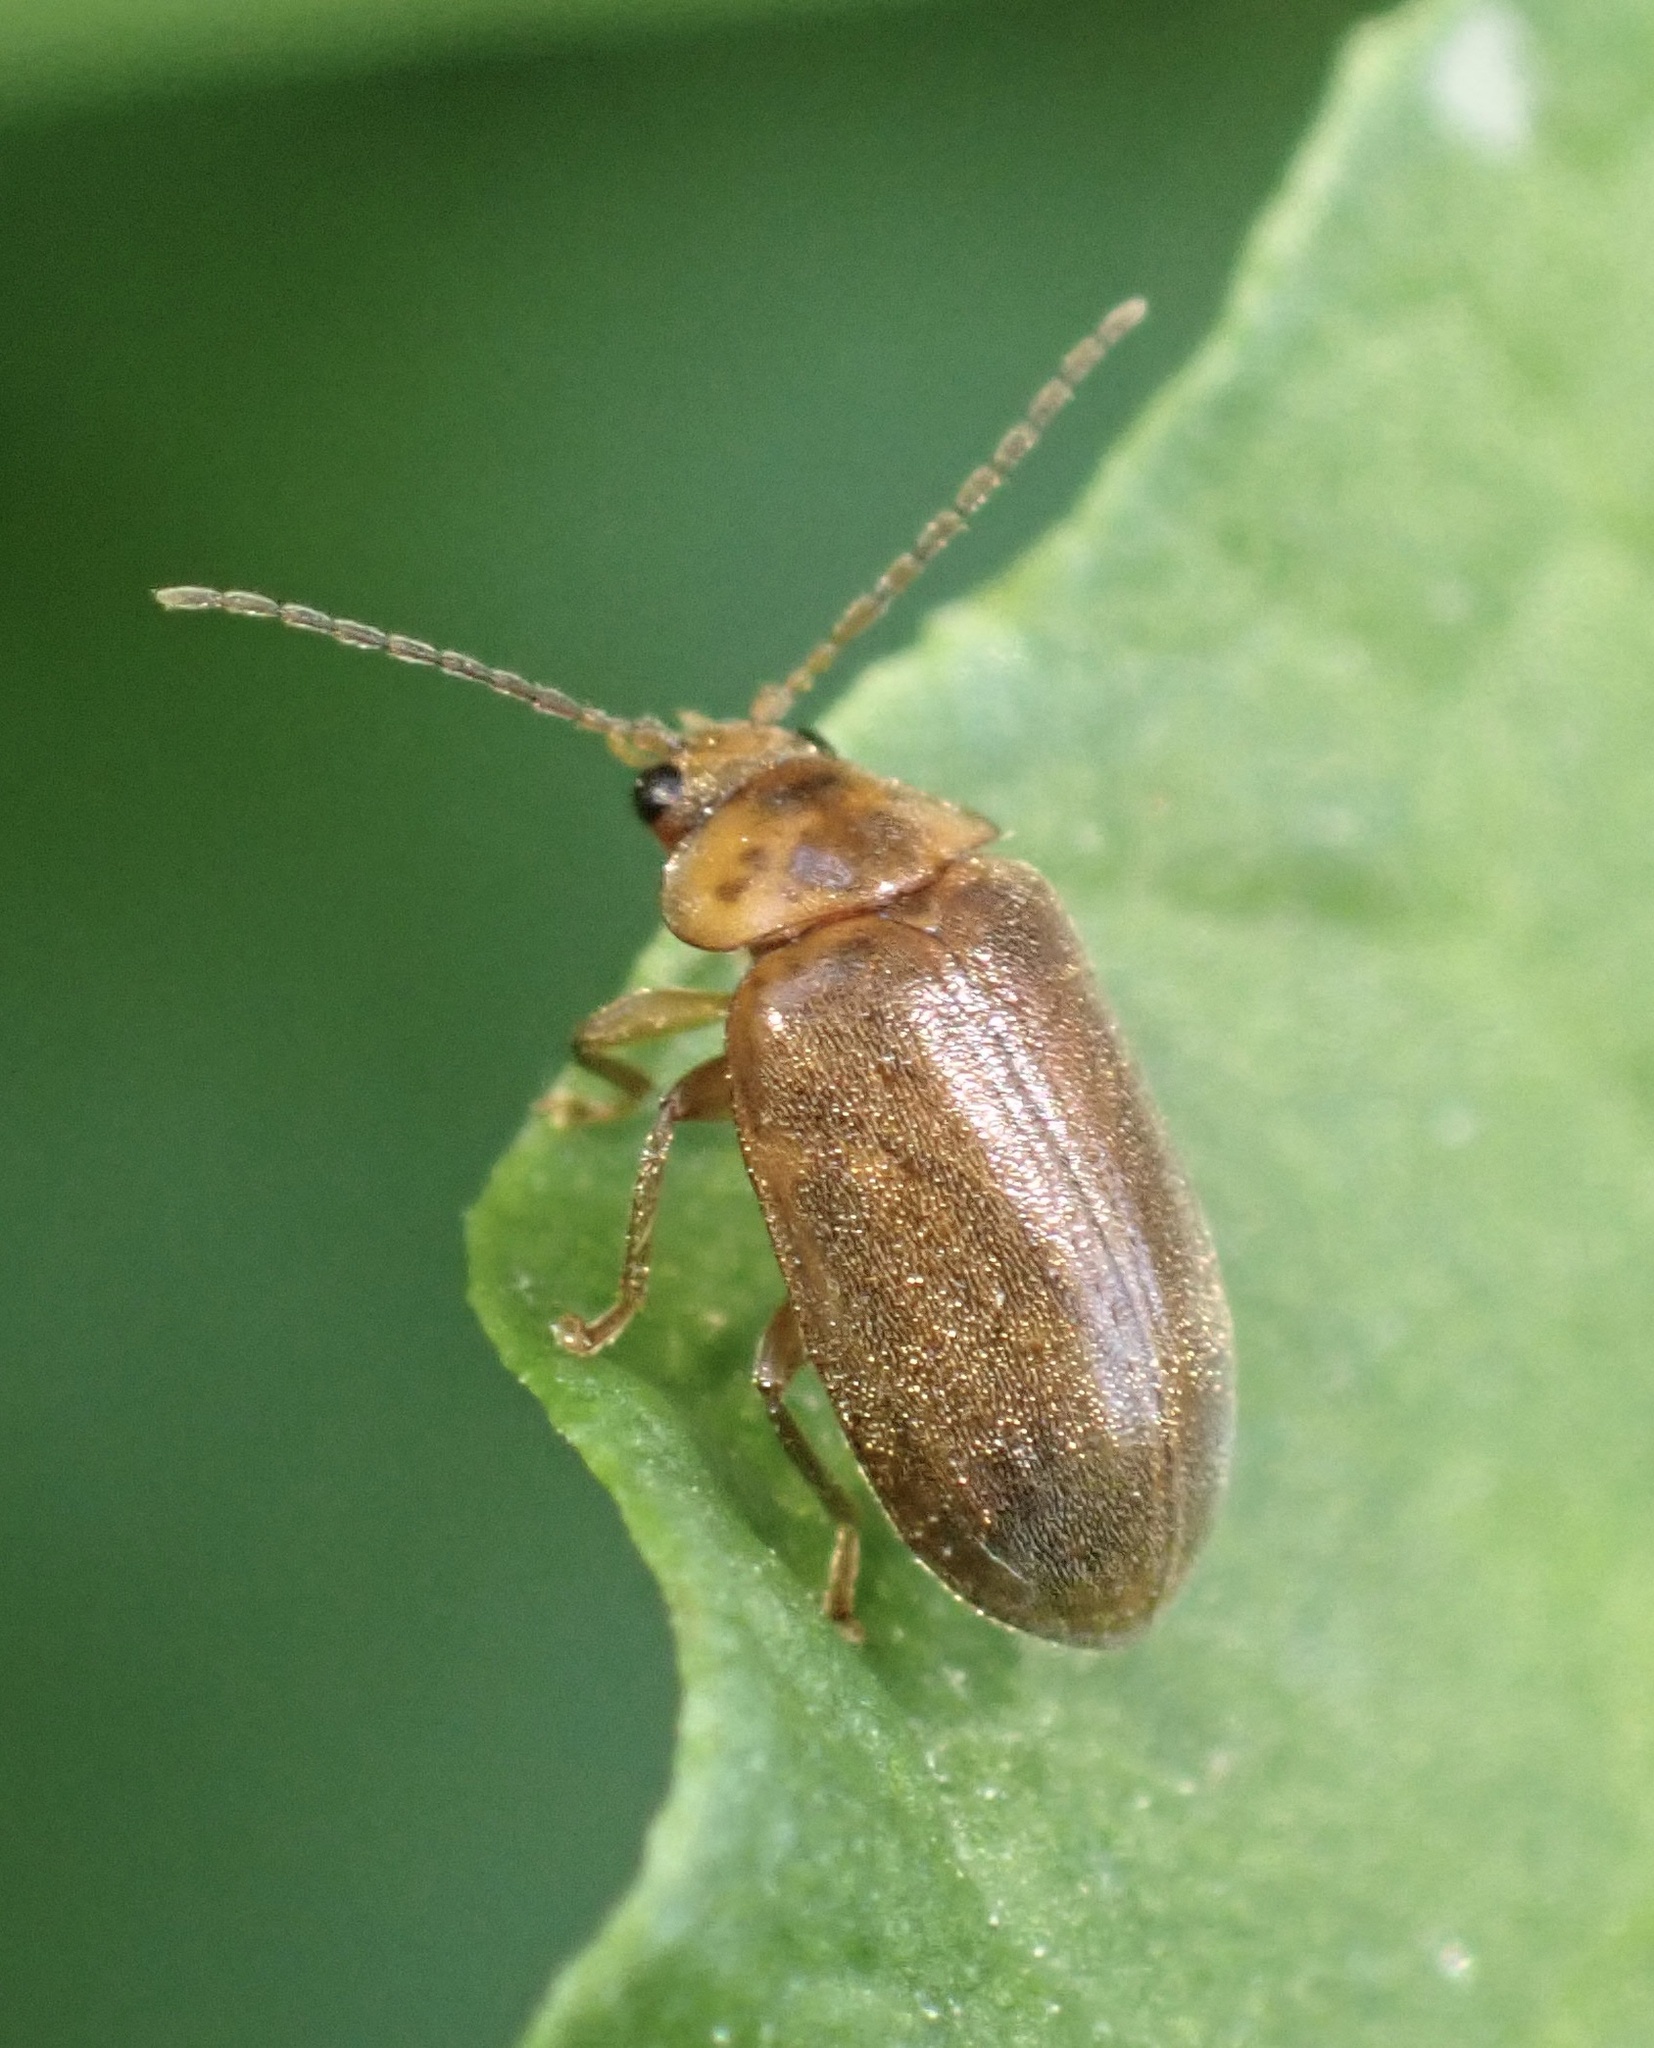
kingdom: Animalia
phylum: Arthropoda
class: Insecta
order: Coleoptera
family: Scirtidae
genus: Microcara
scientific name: Microcara testacea
